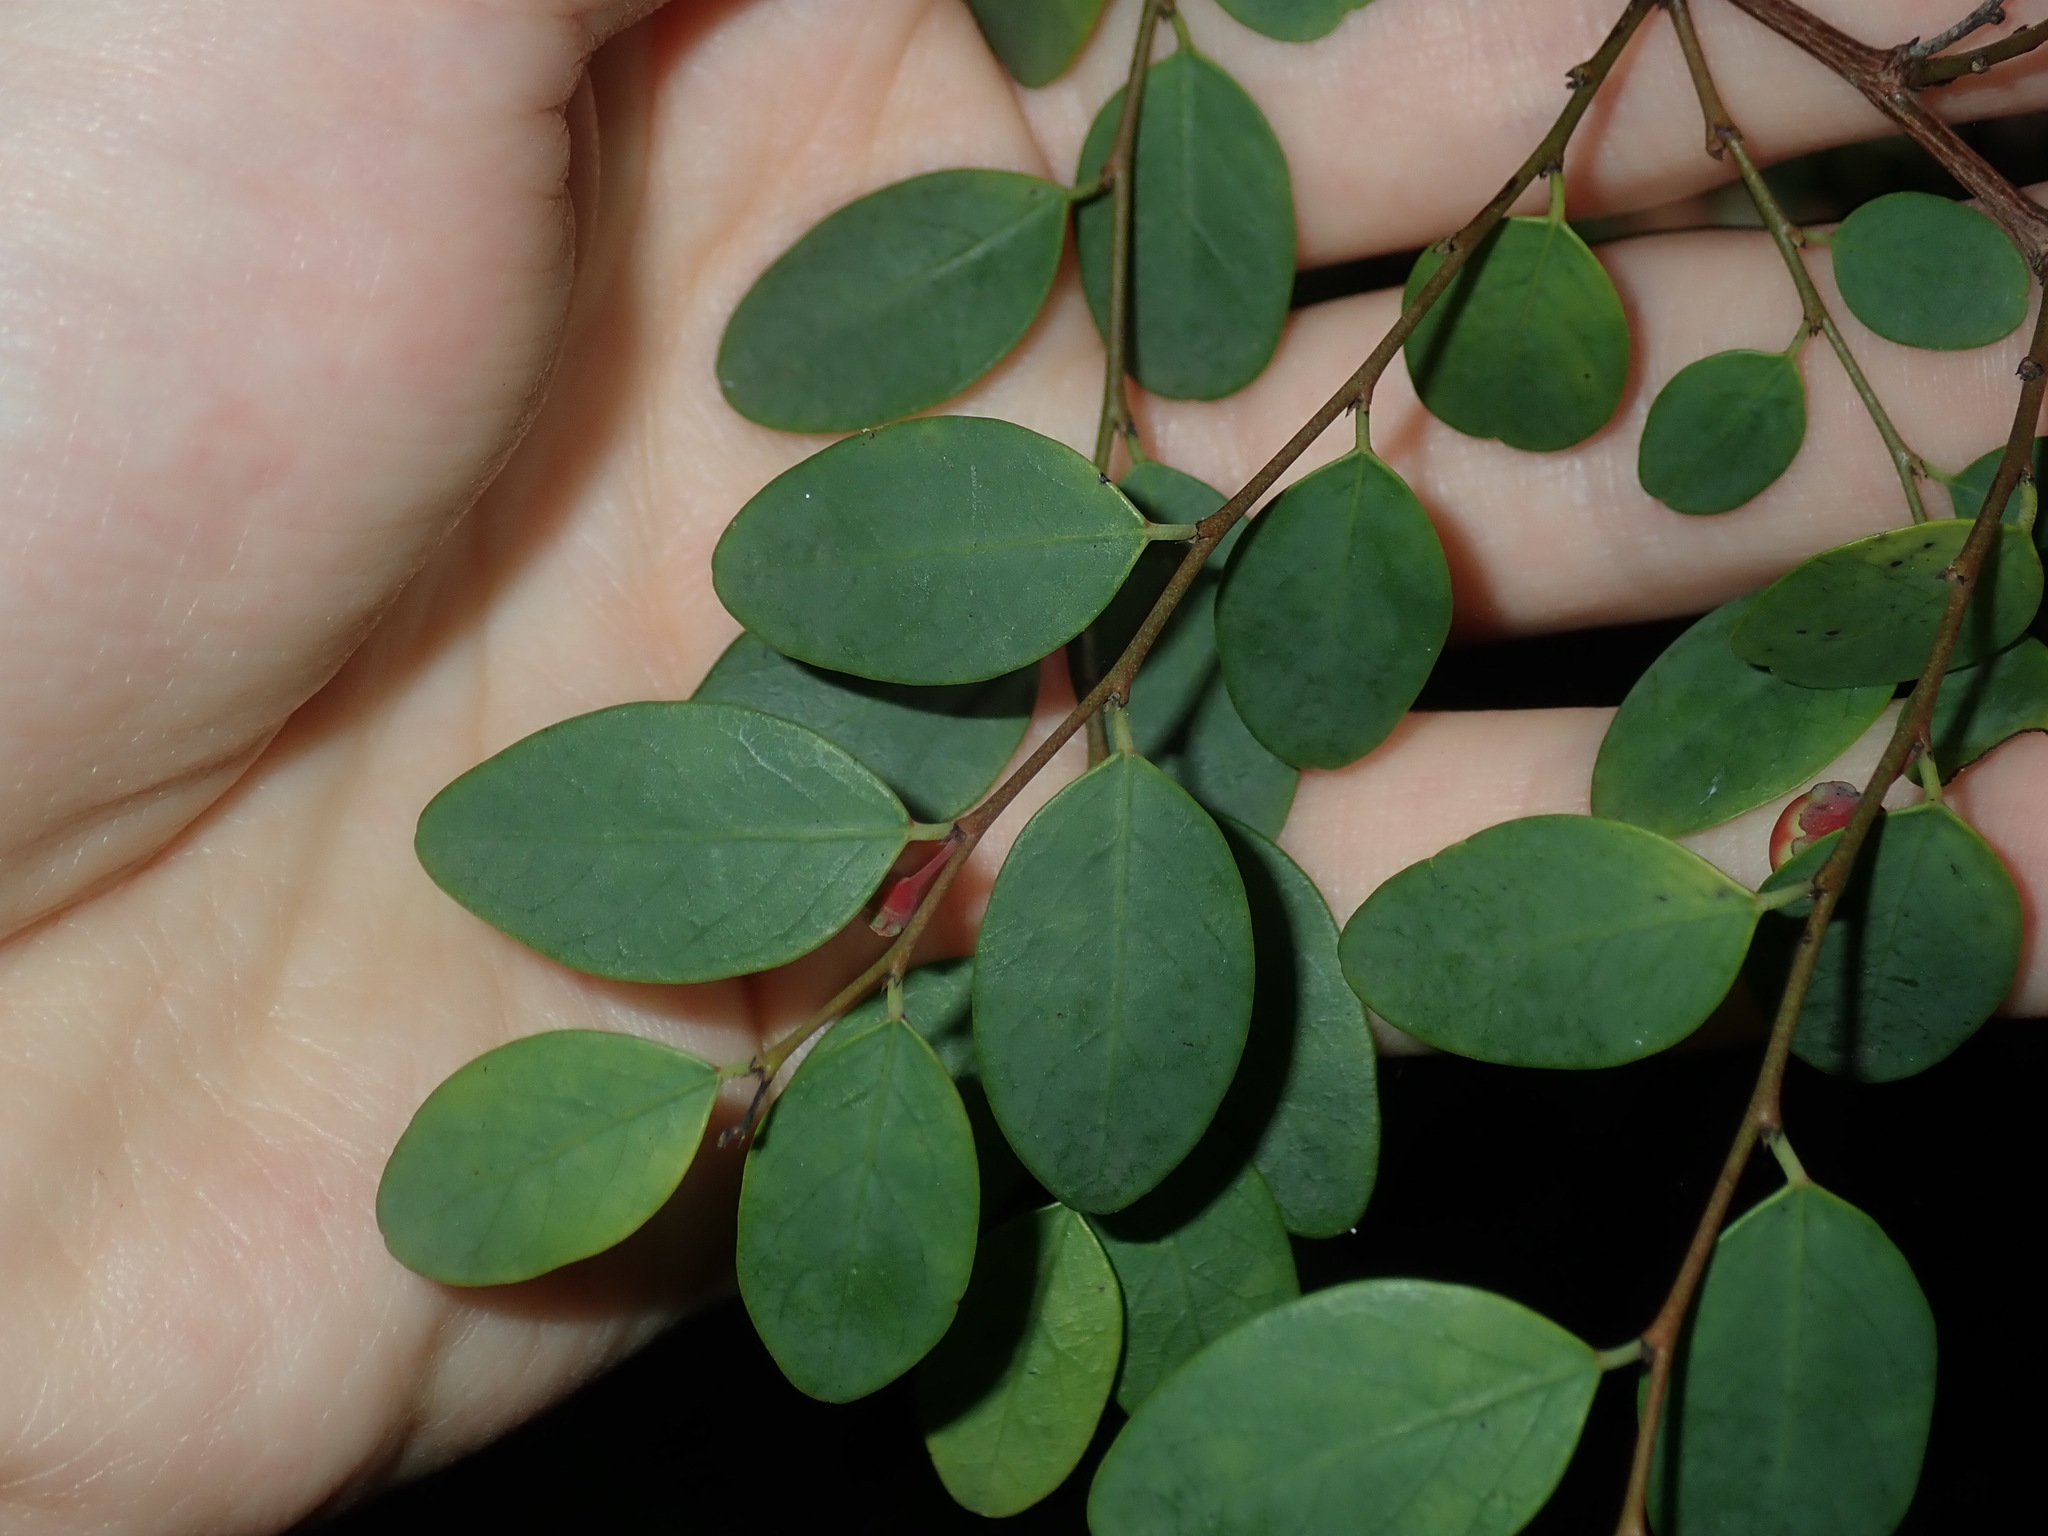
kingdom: Plantae
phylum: Tracheophyta
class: Magnoliopsida
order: Malpighiales
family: Phyllanthaceae
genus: Breynia
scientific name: Breynia oblongifolia
